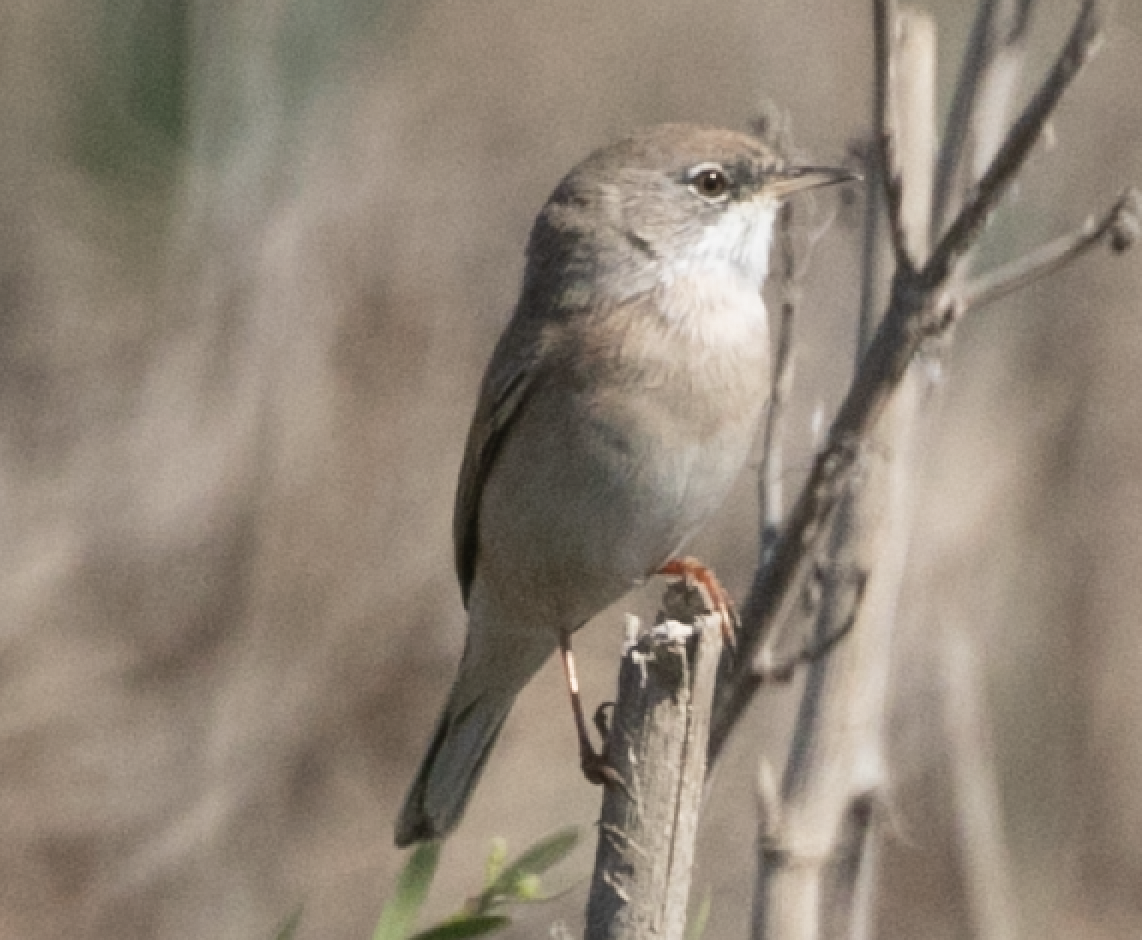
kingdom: Animalia
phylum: Chordata
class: Aves
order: Passeriformes
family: Sylviidae
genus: Sylvia
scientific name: Sylvia conspicillata
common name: Spectacled warbler
